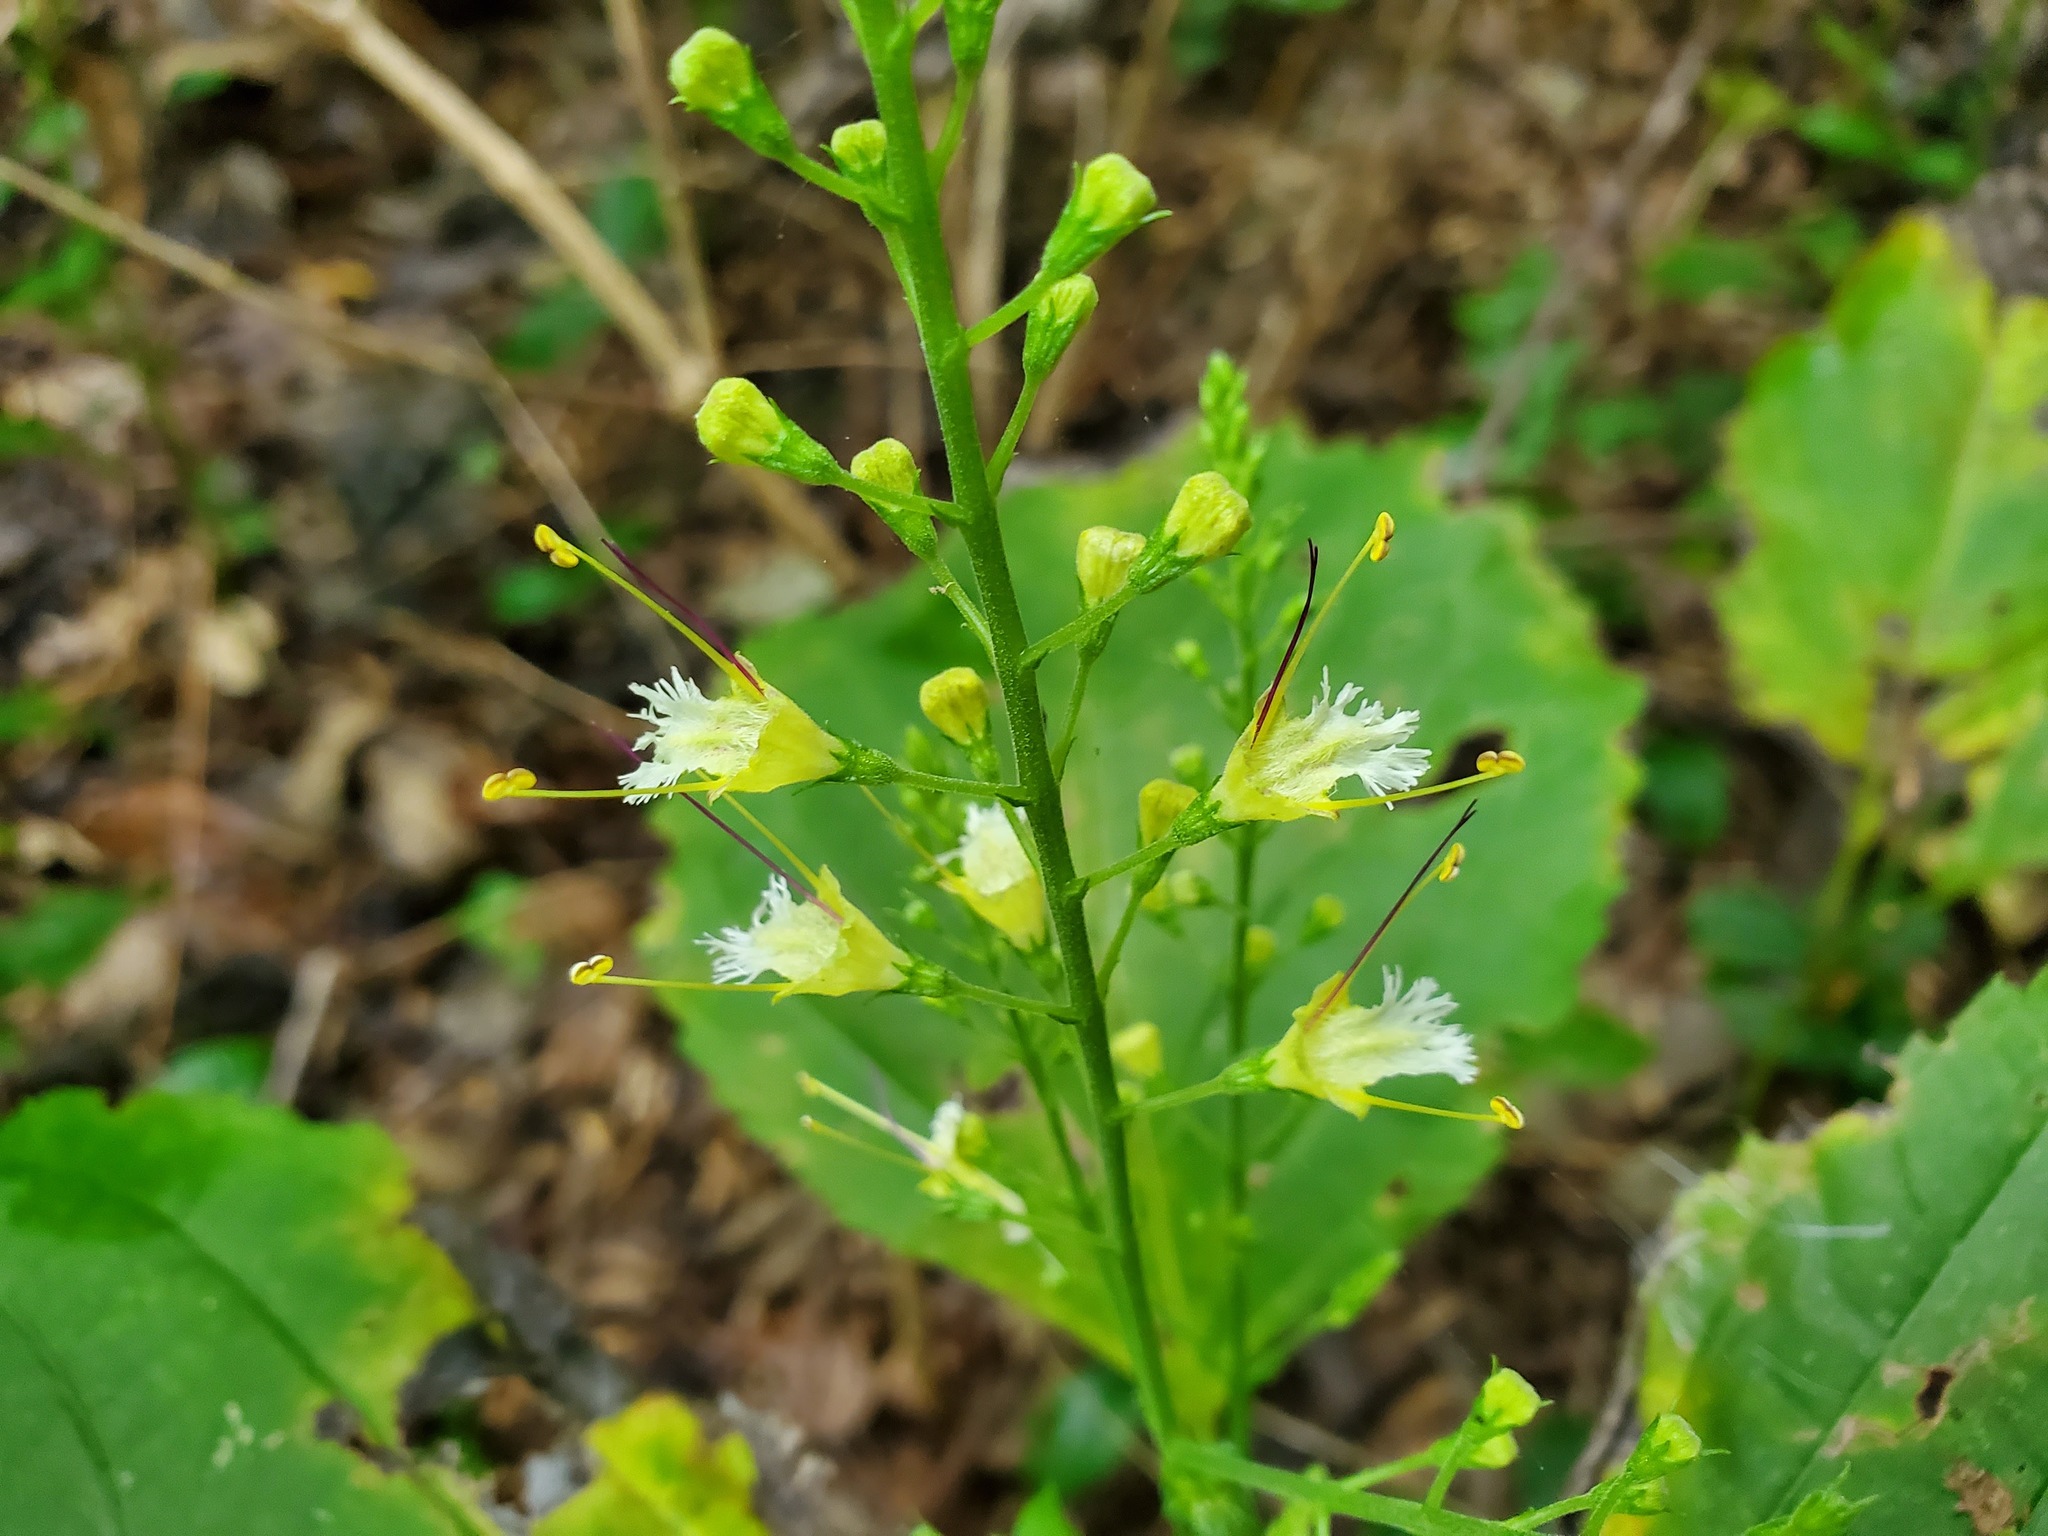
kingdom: Plantae
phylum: Tracheophyta
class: Magnoliopsida
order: Lamiales
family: Lamiaceae
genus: Collinsonia
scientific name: Collinsonia canadensis
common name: Northern horsebalm
